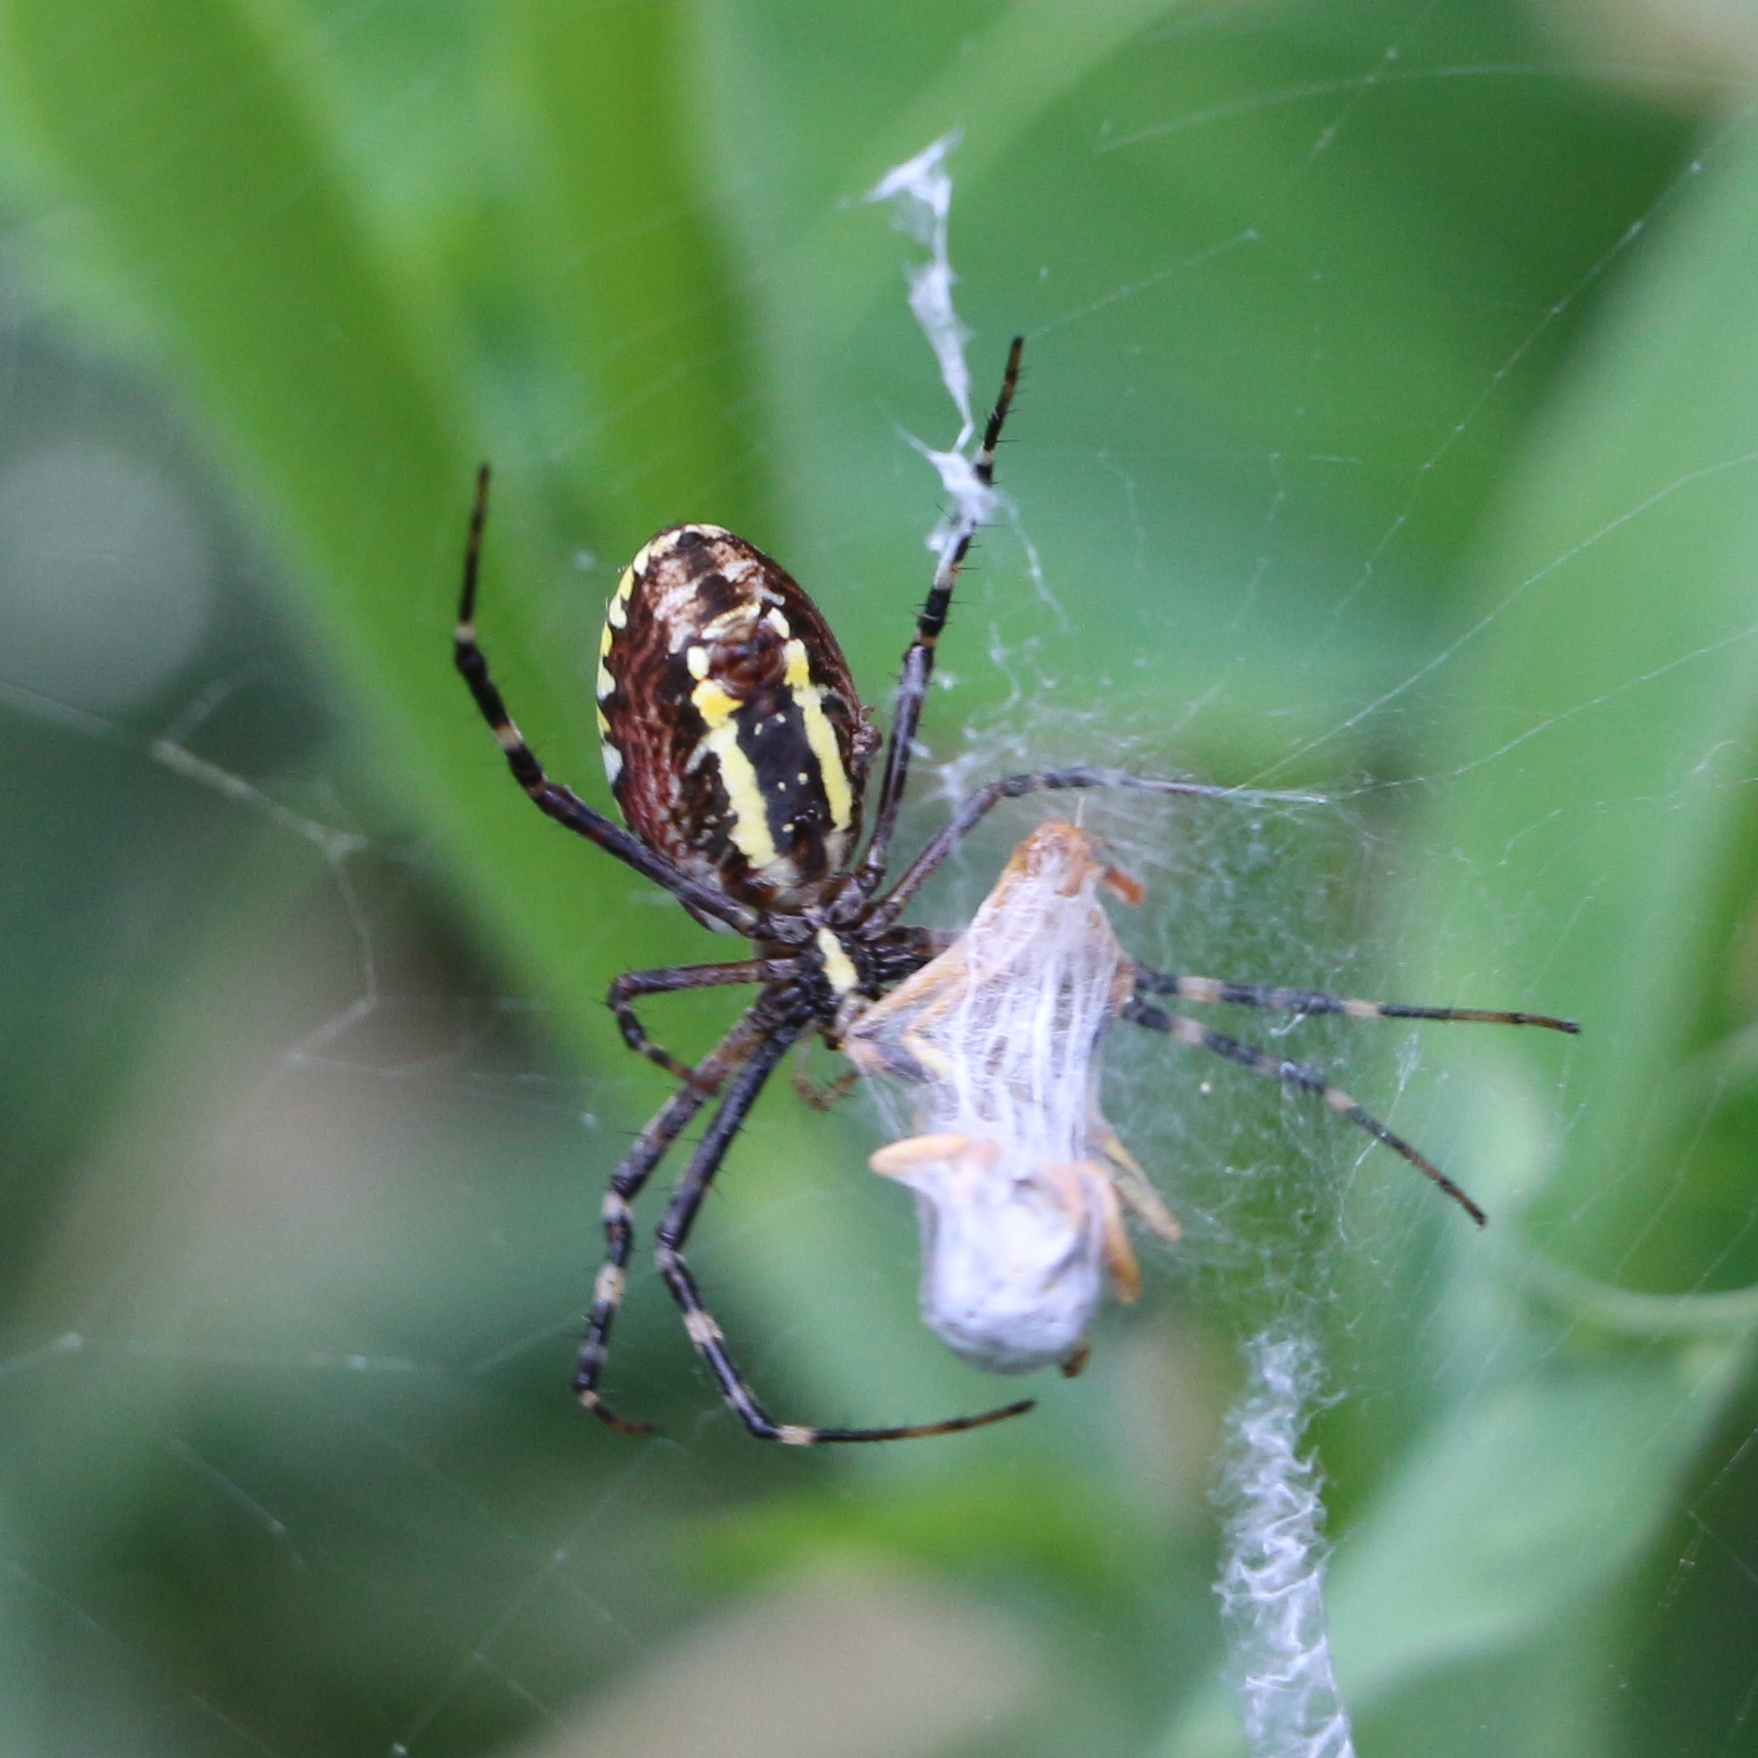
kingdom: Animalia
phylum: Arthropoda
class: Arachnida
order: Araneae
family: Araneidae
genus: Argiope
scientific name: Argiope bruennichi
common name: Wasp spider
